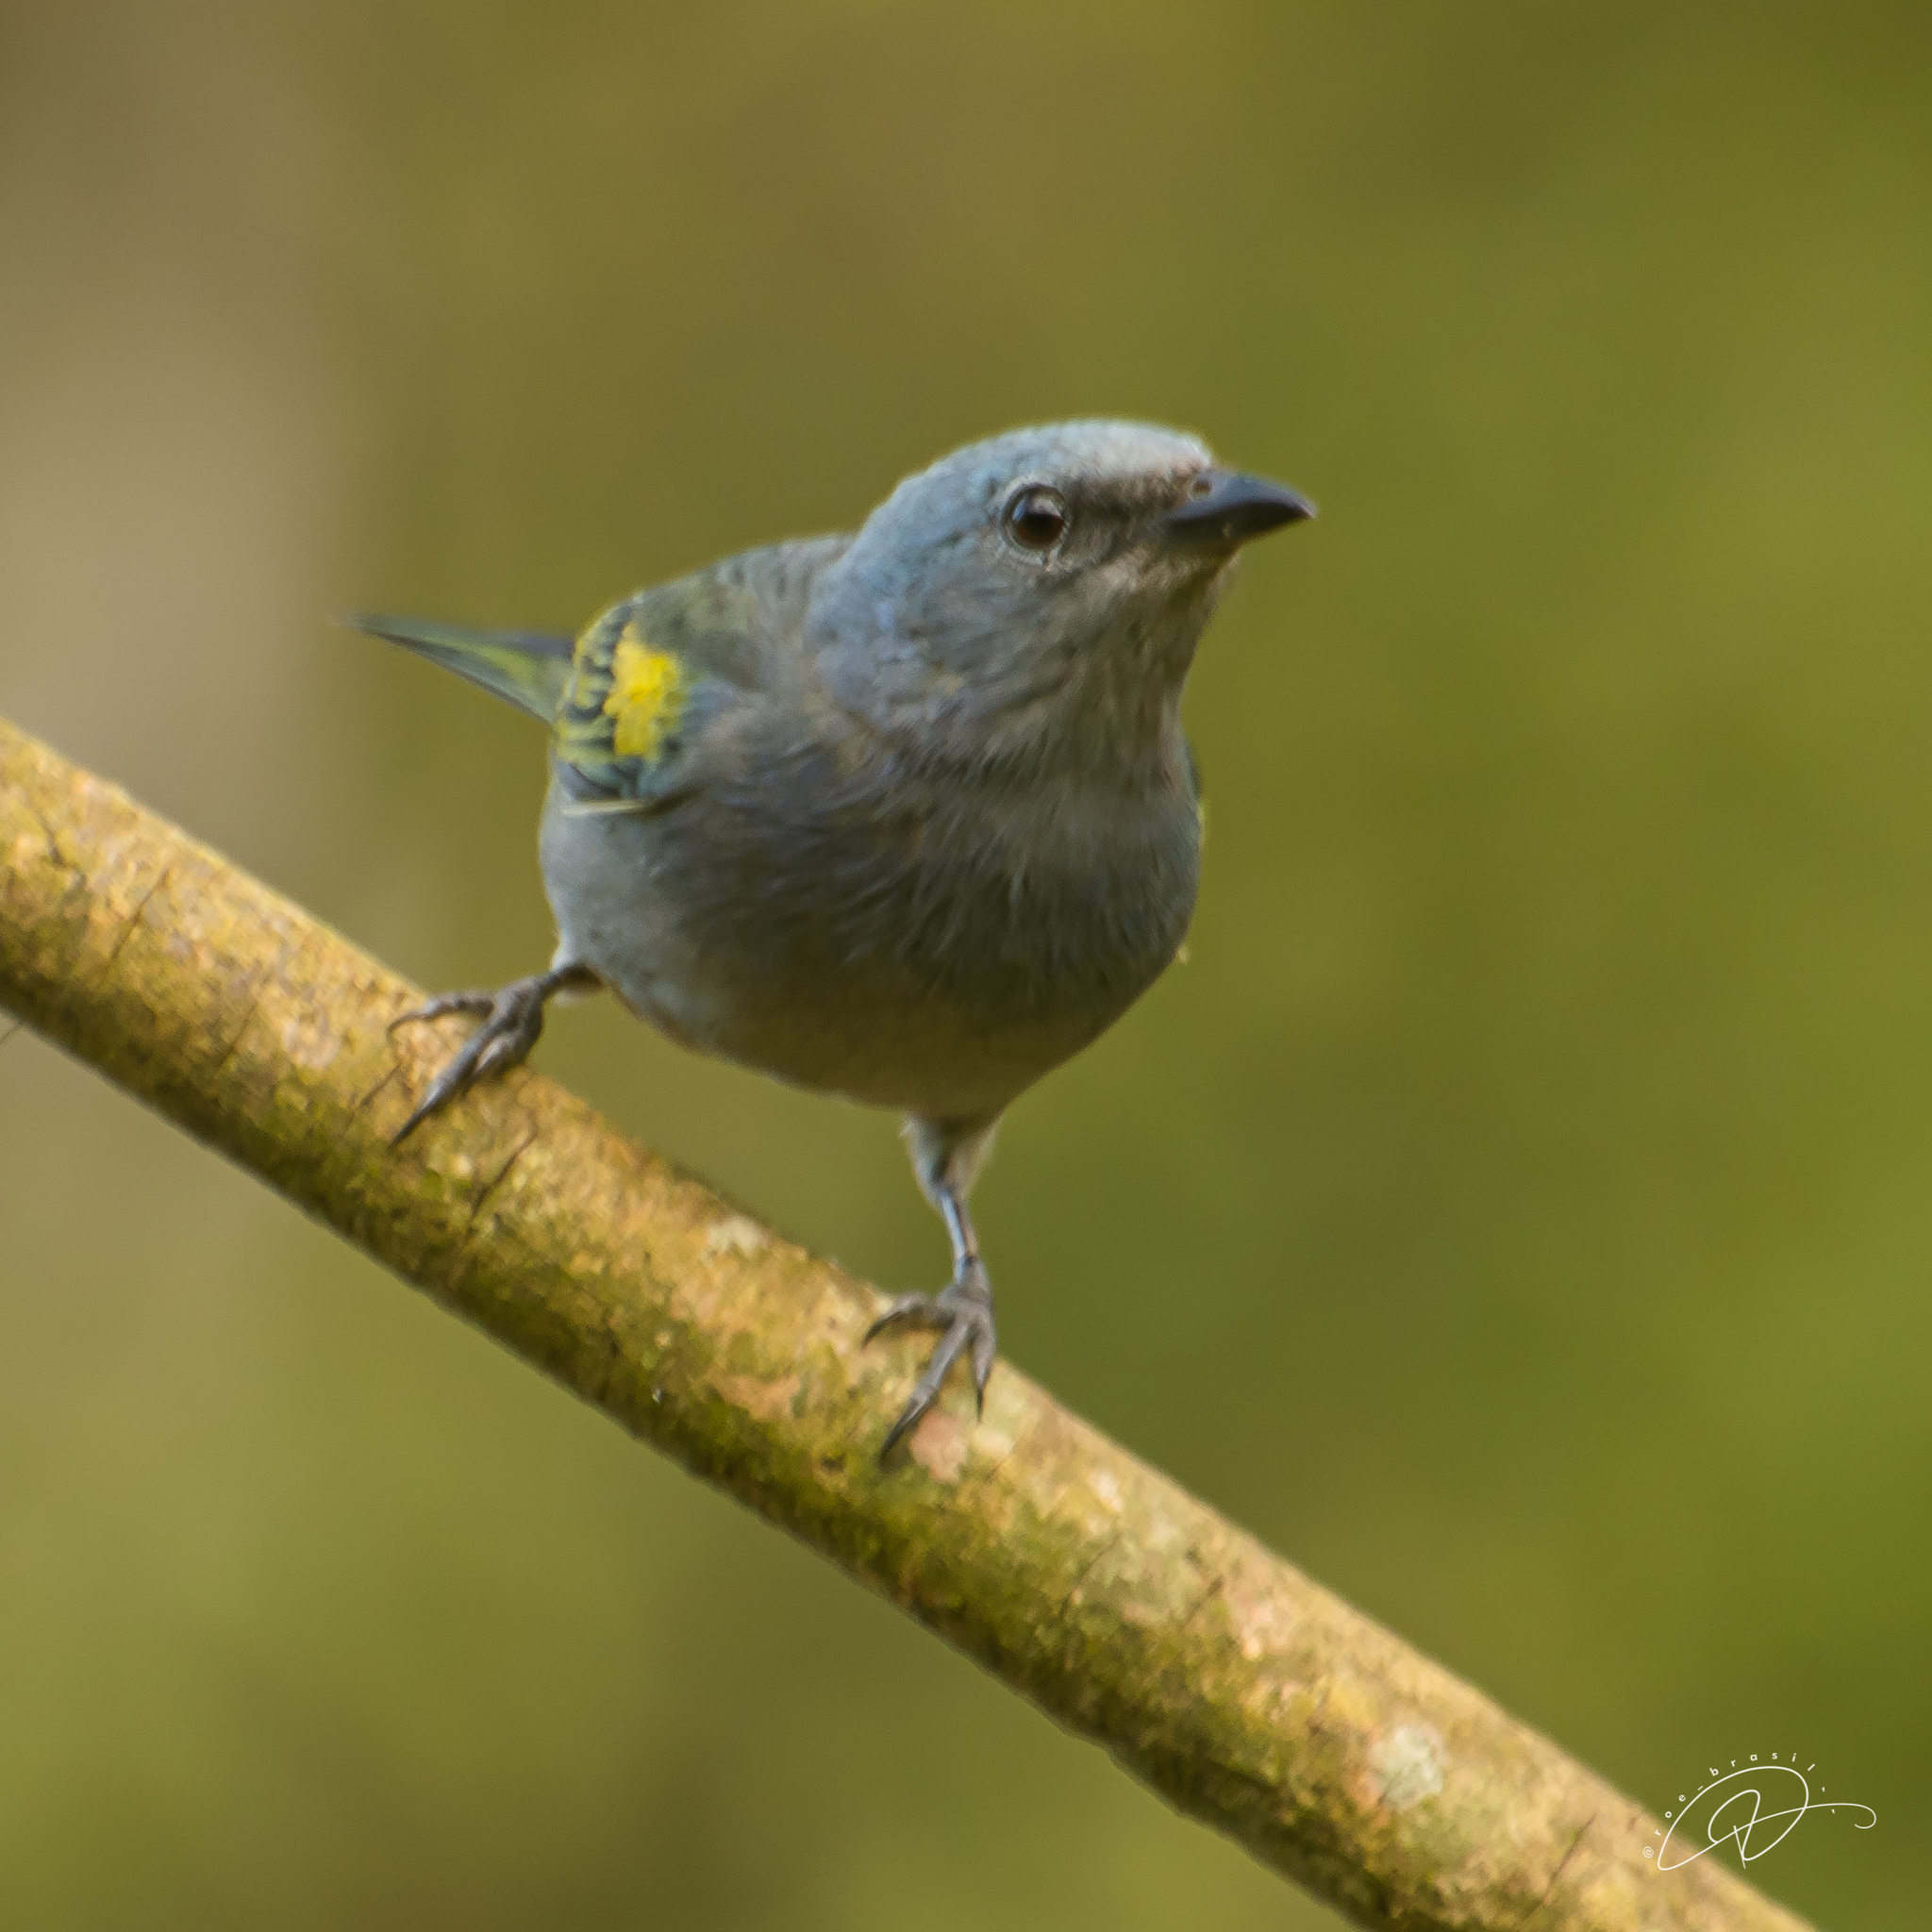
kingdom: Animalia
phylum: Chordata
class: Aves
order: Passeriformes
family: Thraupidae
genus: Thraupis
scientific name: Thraupis ornata
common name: Golden-chevroned tanager
